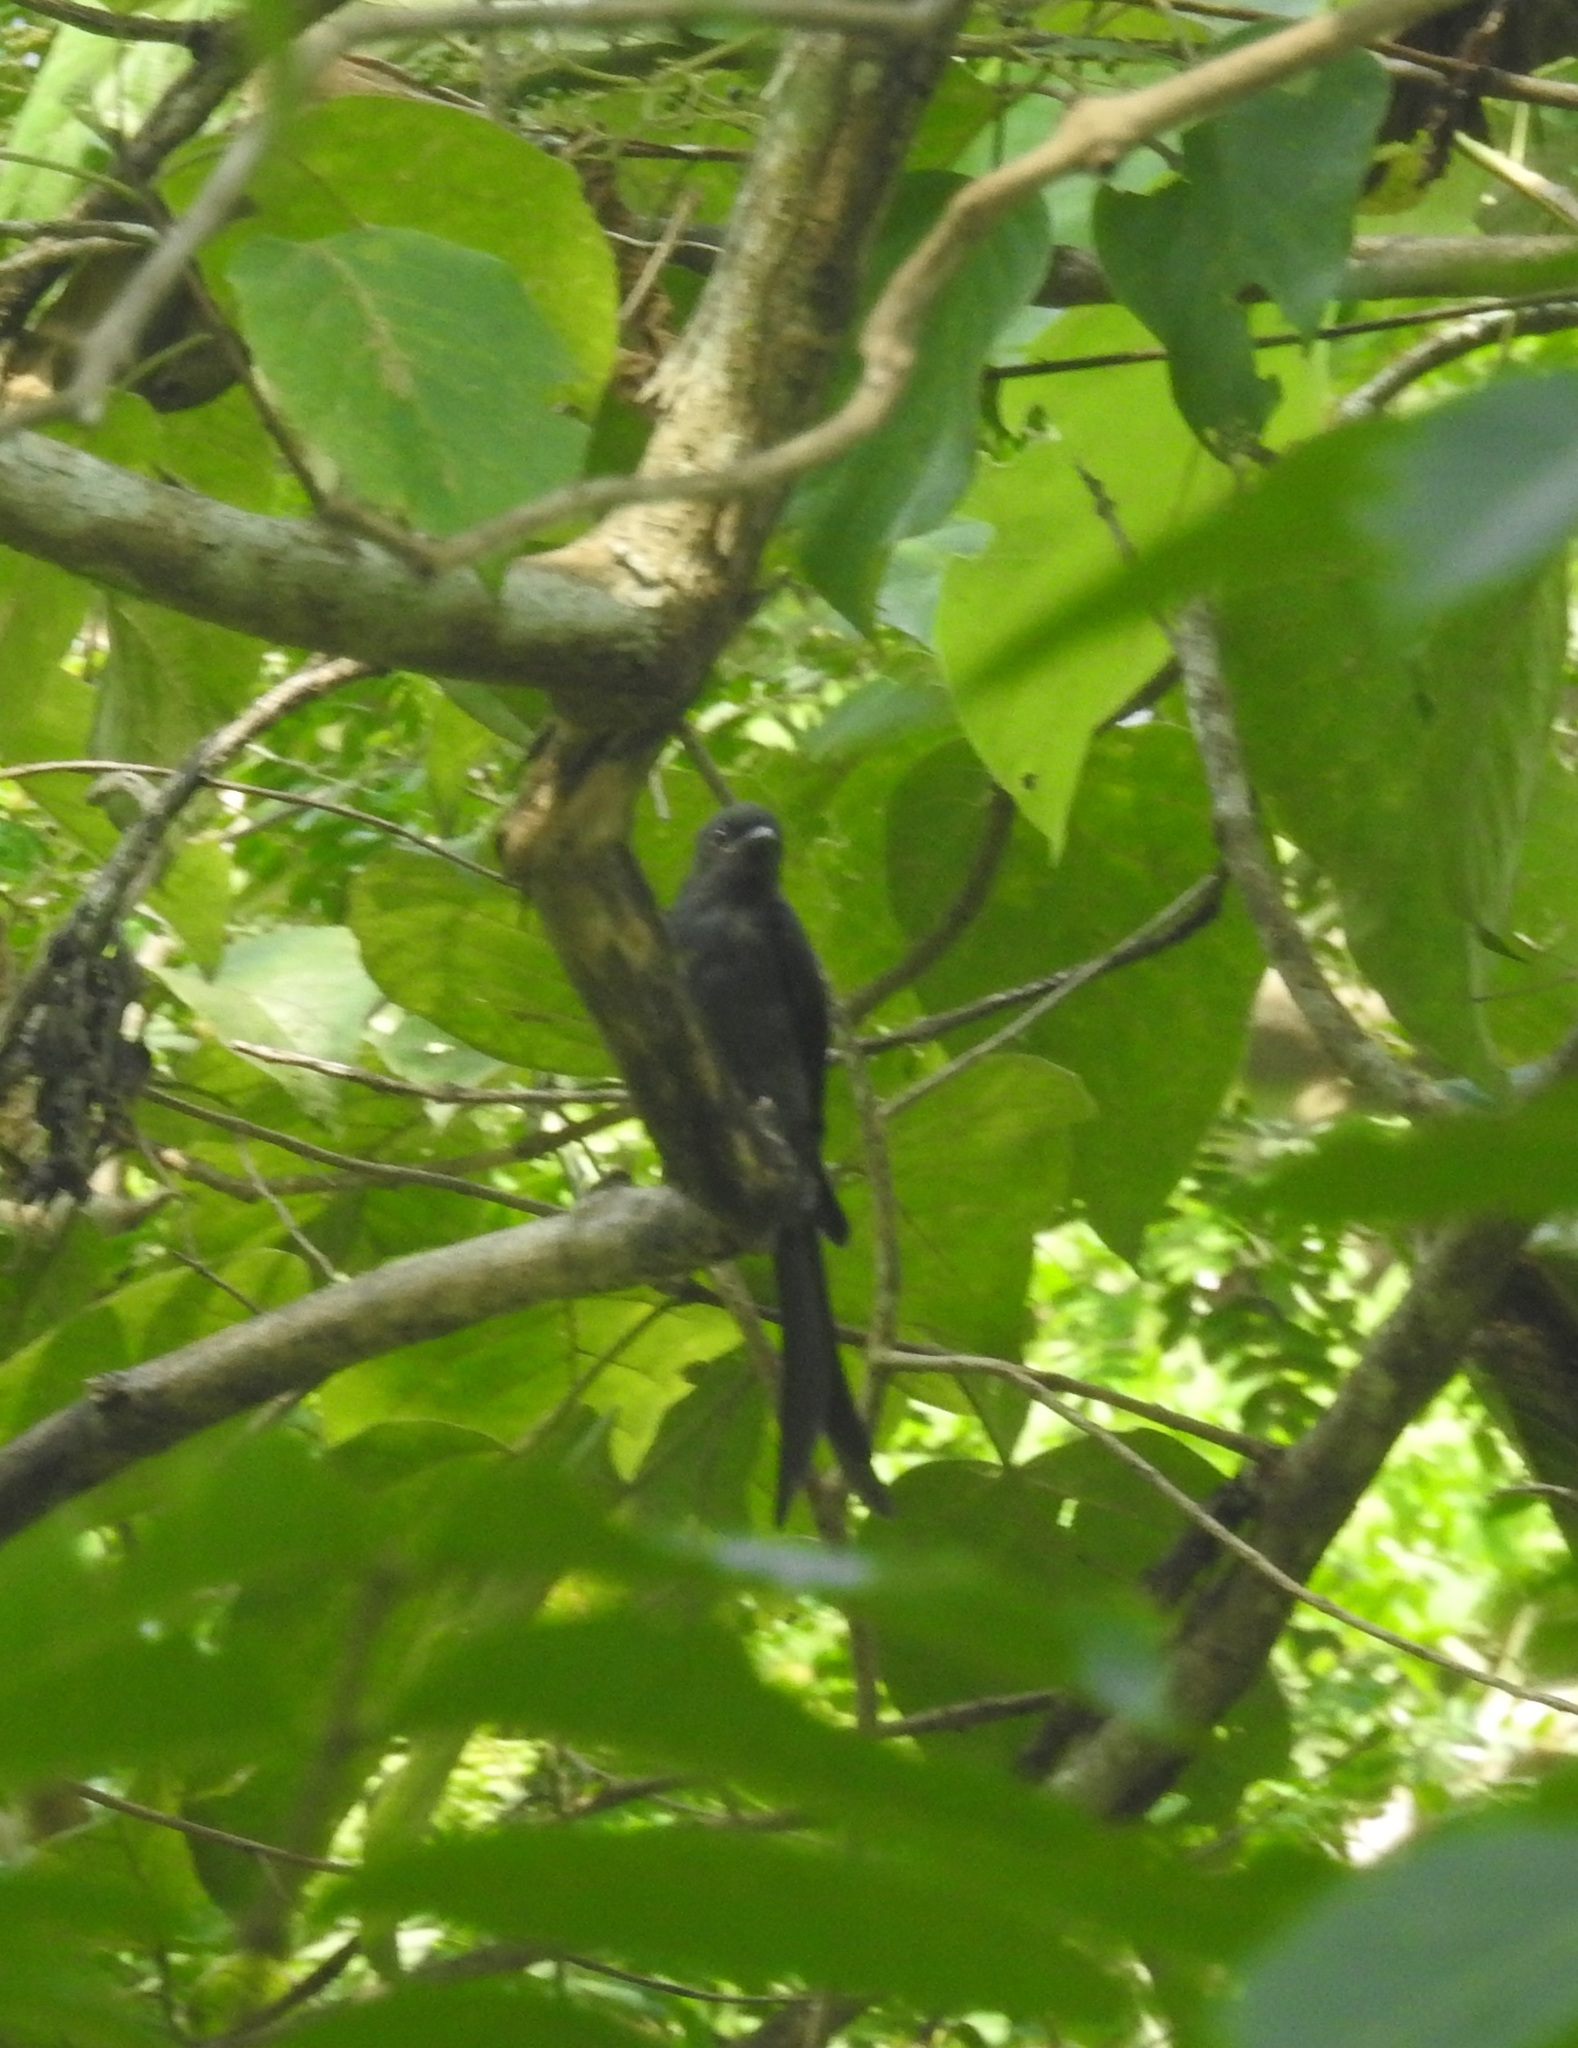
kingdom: Animalia
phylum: Chordata
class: Aves
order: Passeriformes
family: Dicruridae
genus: Dicrurus
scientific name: Dicrurus leucophaeus
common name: Ashy drongo
